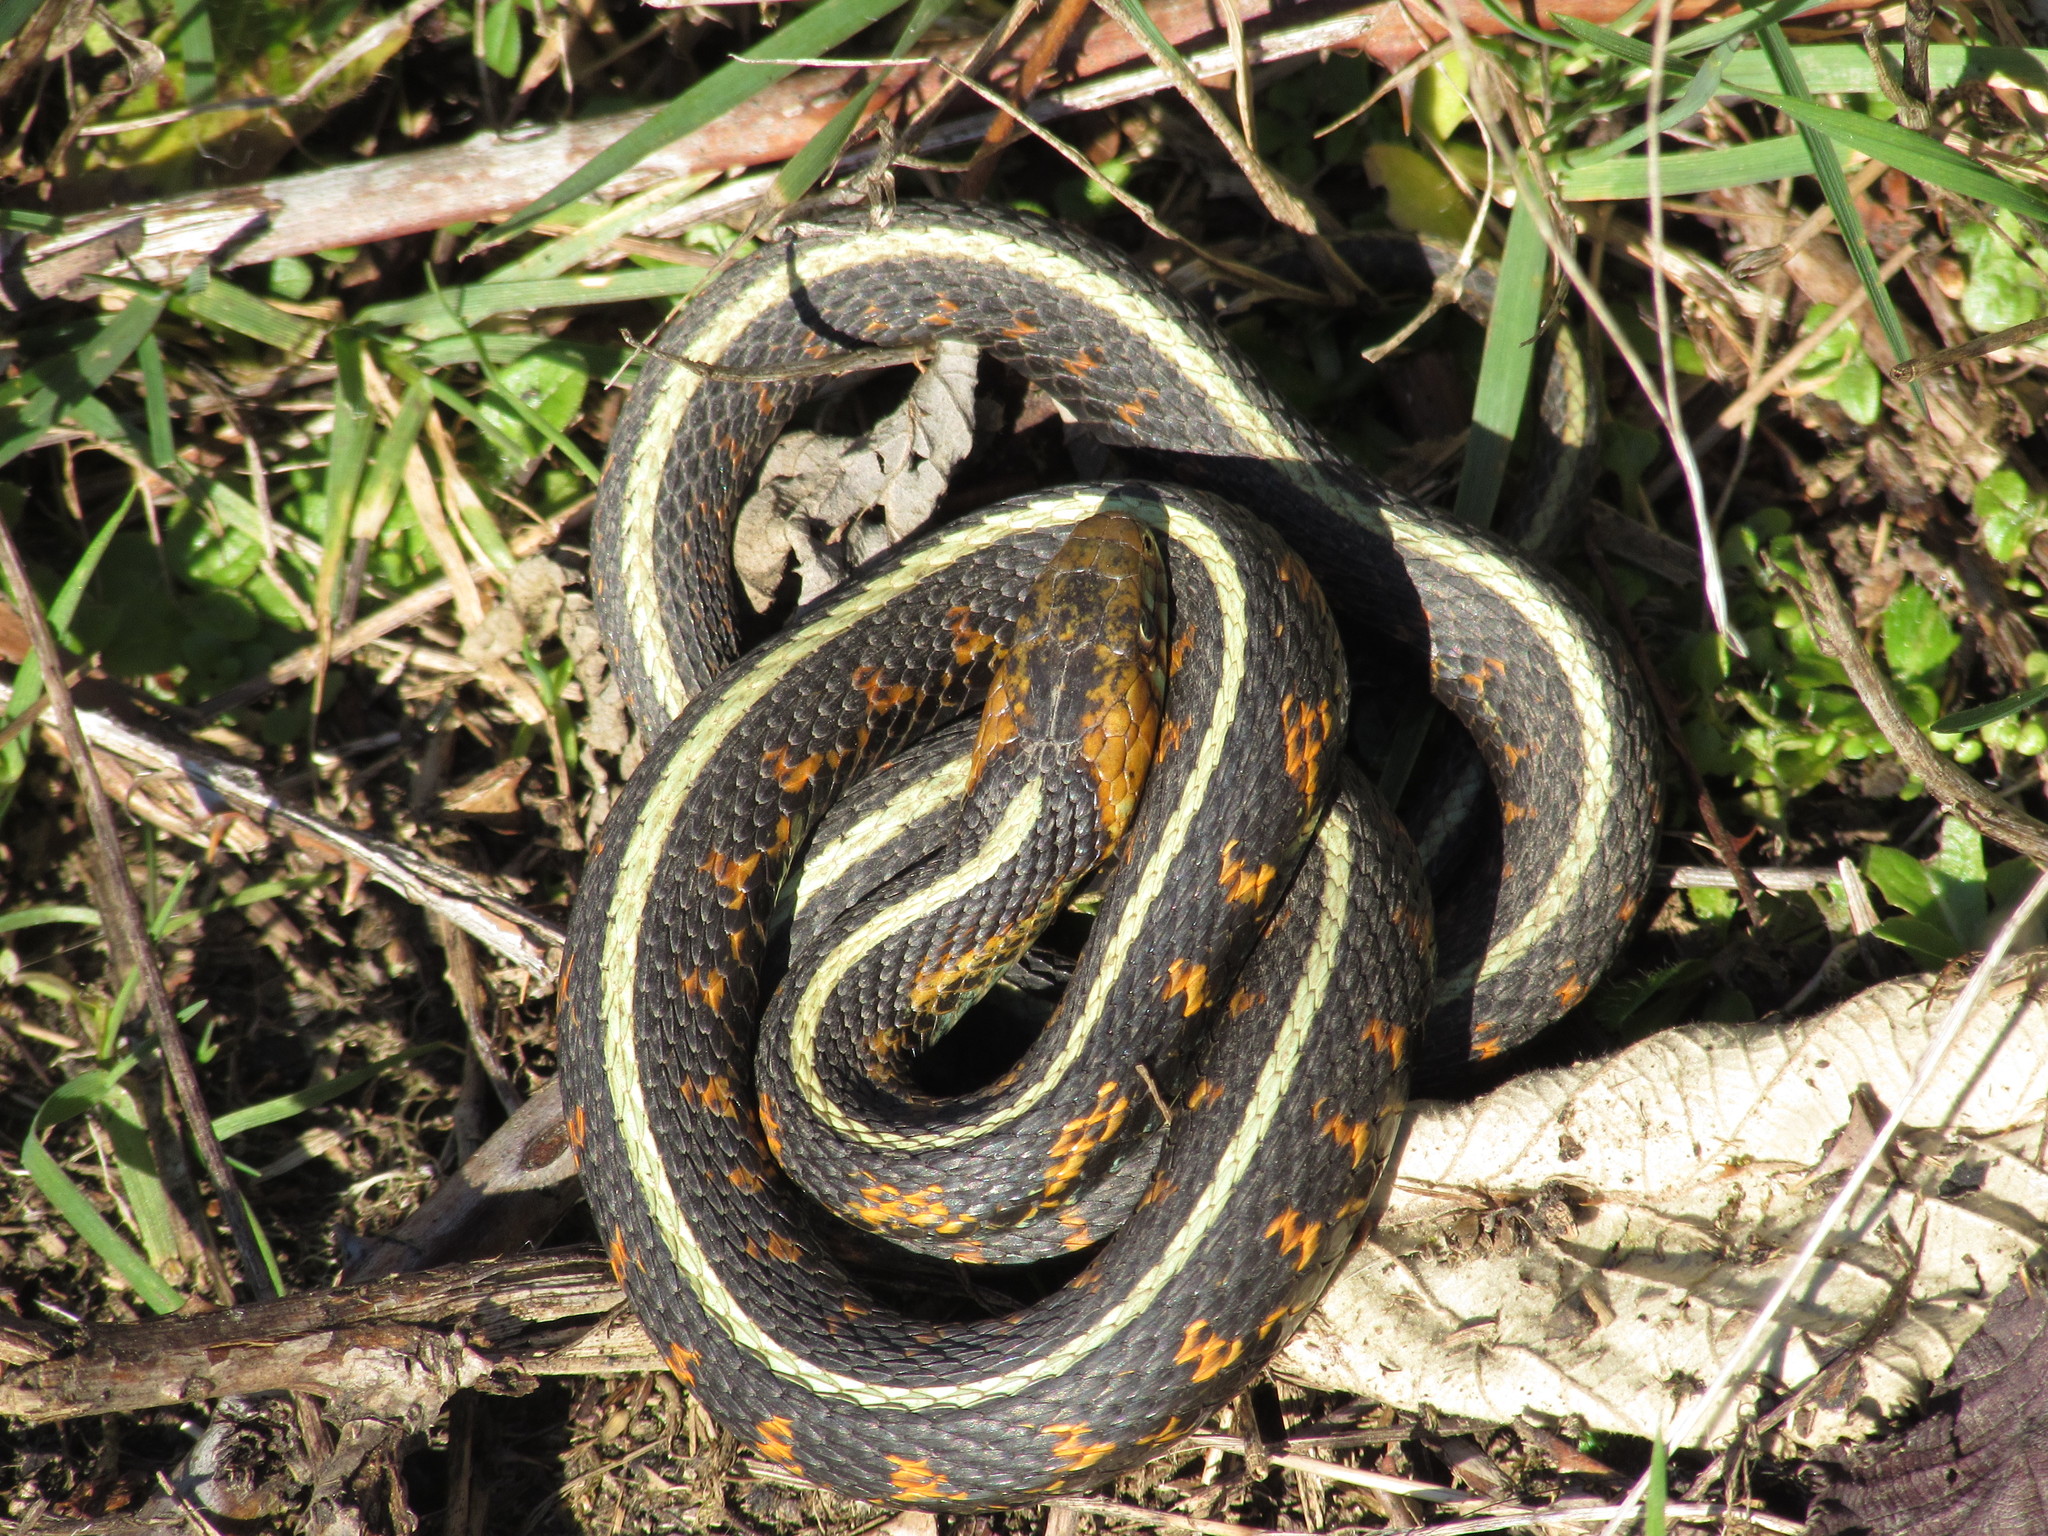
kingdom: Animalia
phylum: Chordata
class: Squamata
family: Colubridae
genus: Thamnophis
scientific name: Thamnophis sirtalis
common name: Common garter snake
